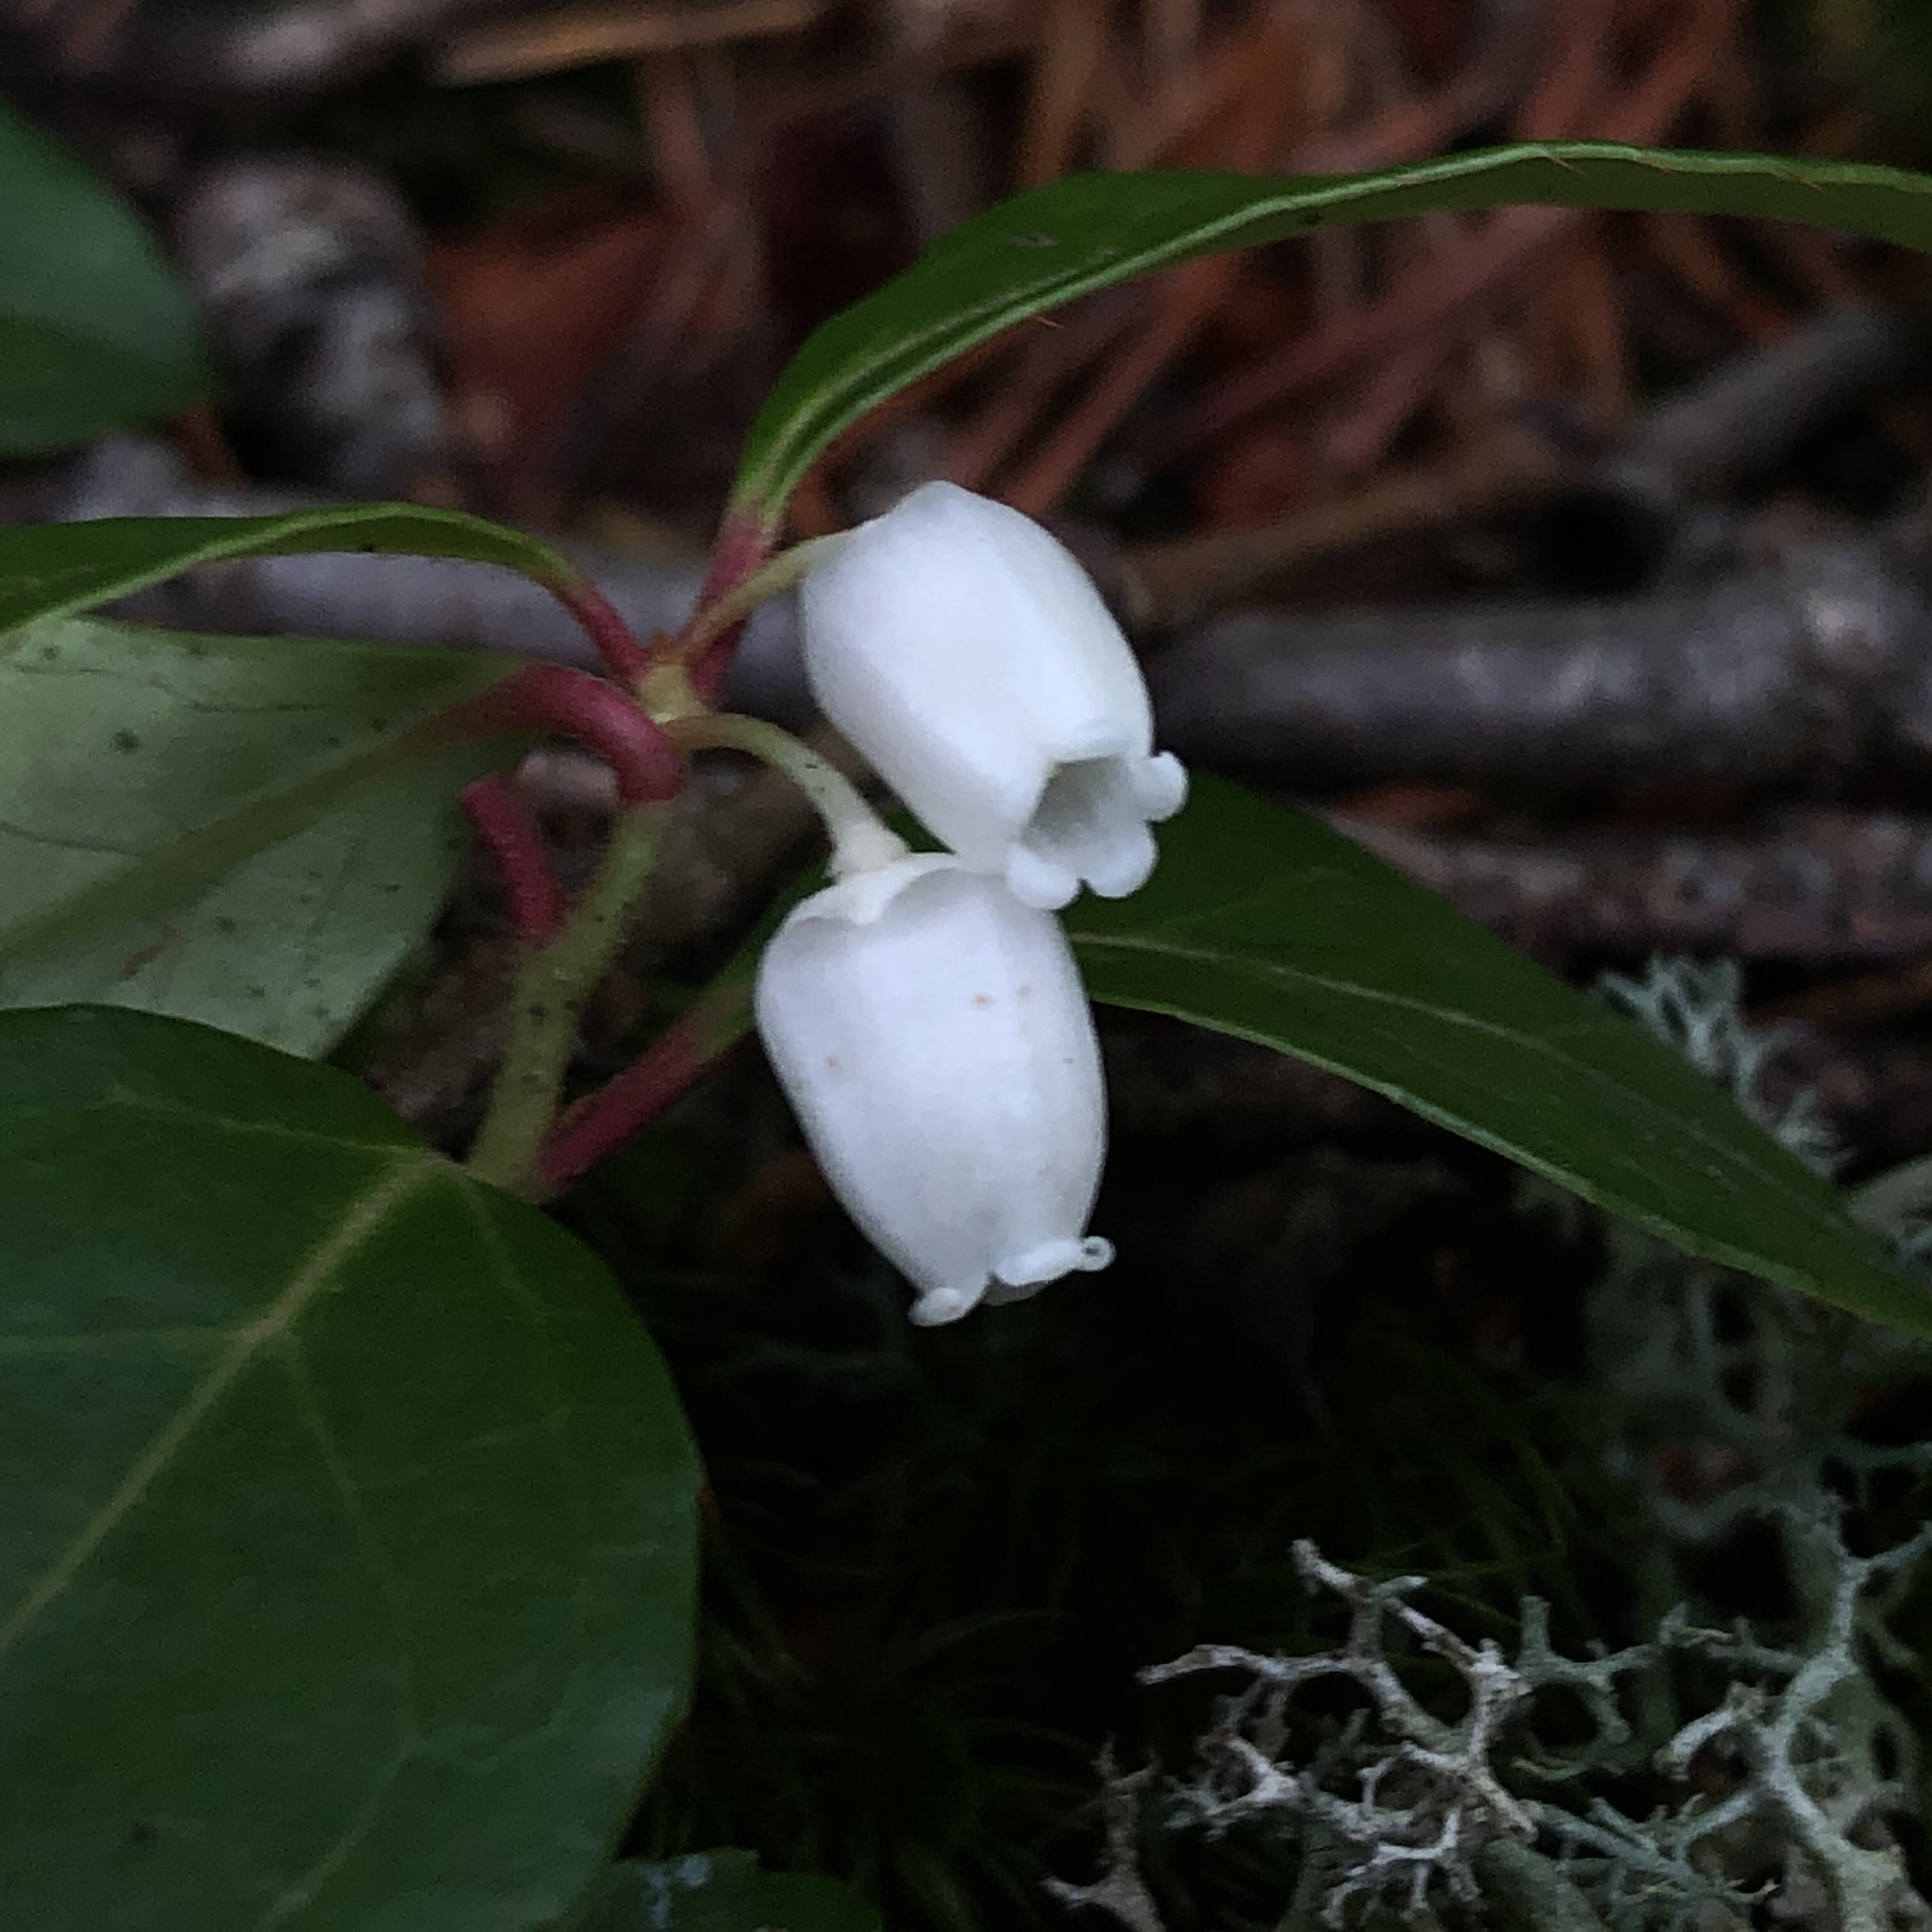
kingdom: Plantae
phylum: Tracheophyta
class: Magnoliopsida
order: Ericales
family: Ericaceae
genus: Gaultheria
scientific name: Gaultheria procumbens
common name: Checkerberry
